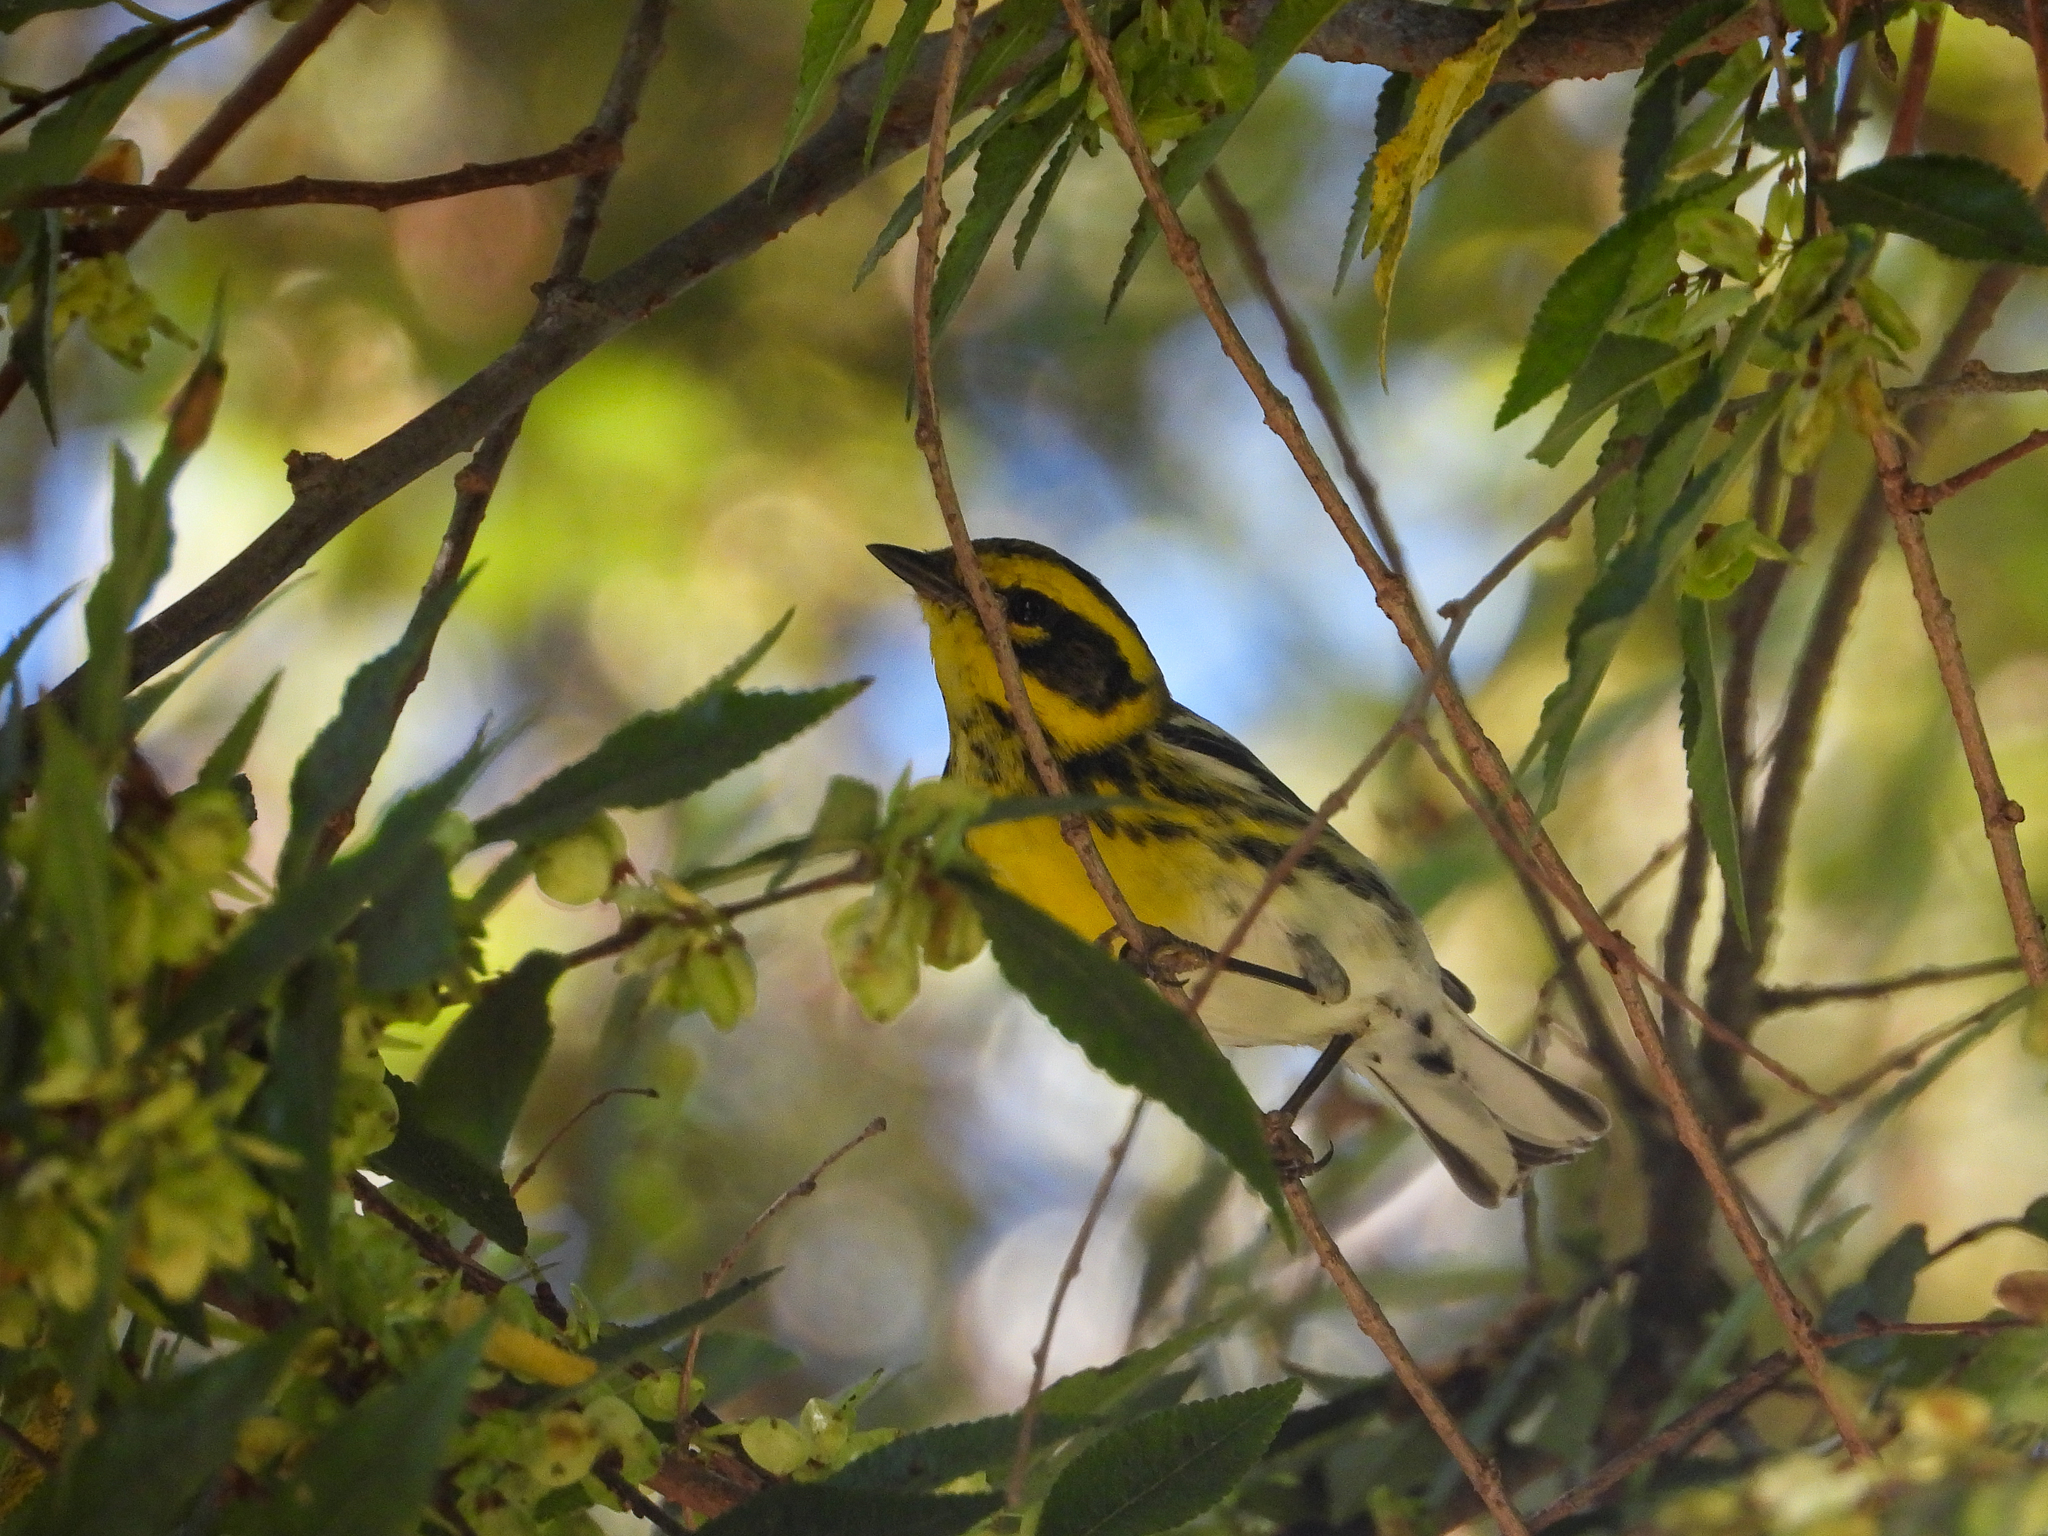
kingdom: Animalia
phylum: Chordata
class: Aves
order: Passeriformes
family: Parulidae
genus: Setophaga
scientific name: Setophaga townsendi
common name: Townsend's warbler
